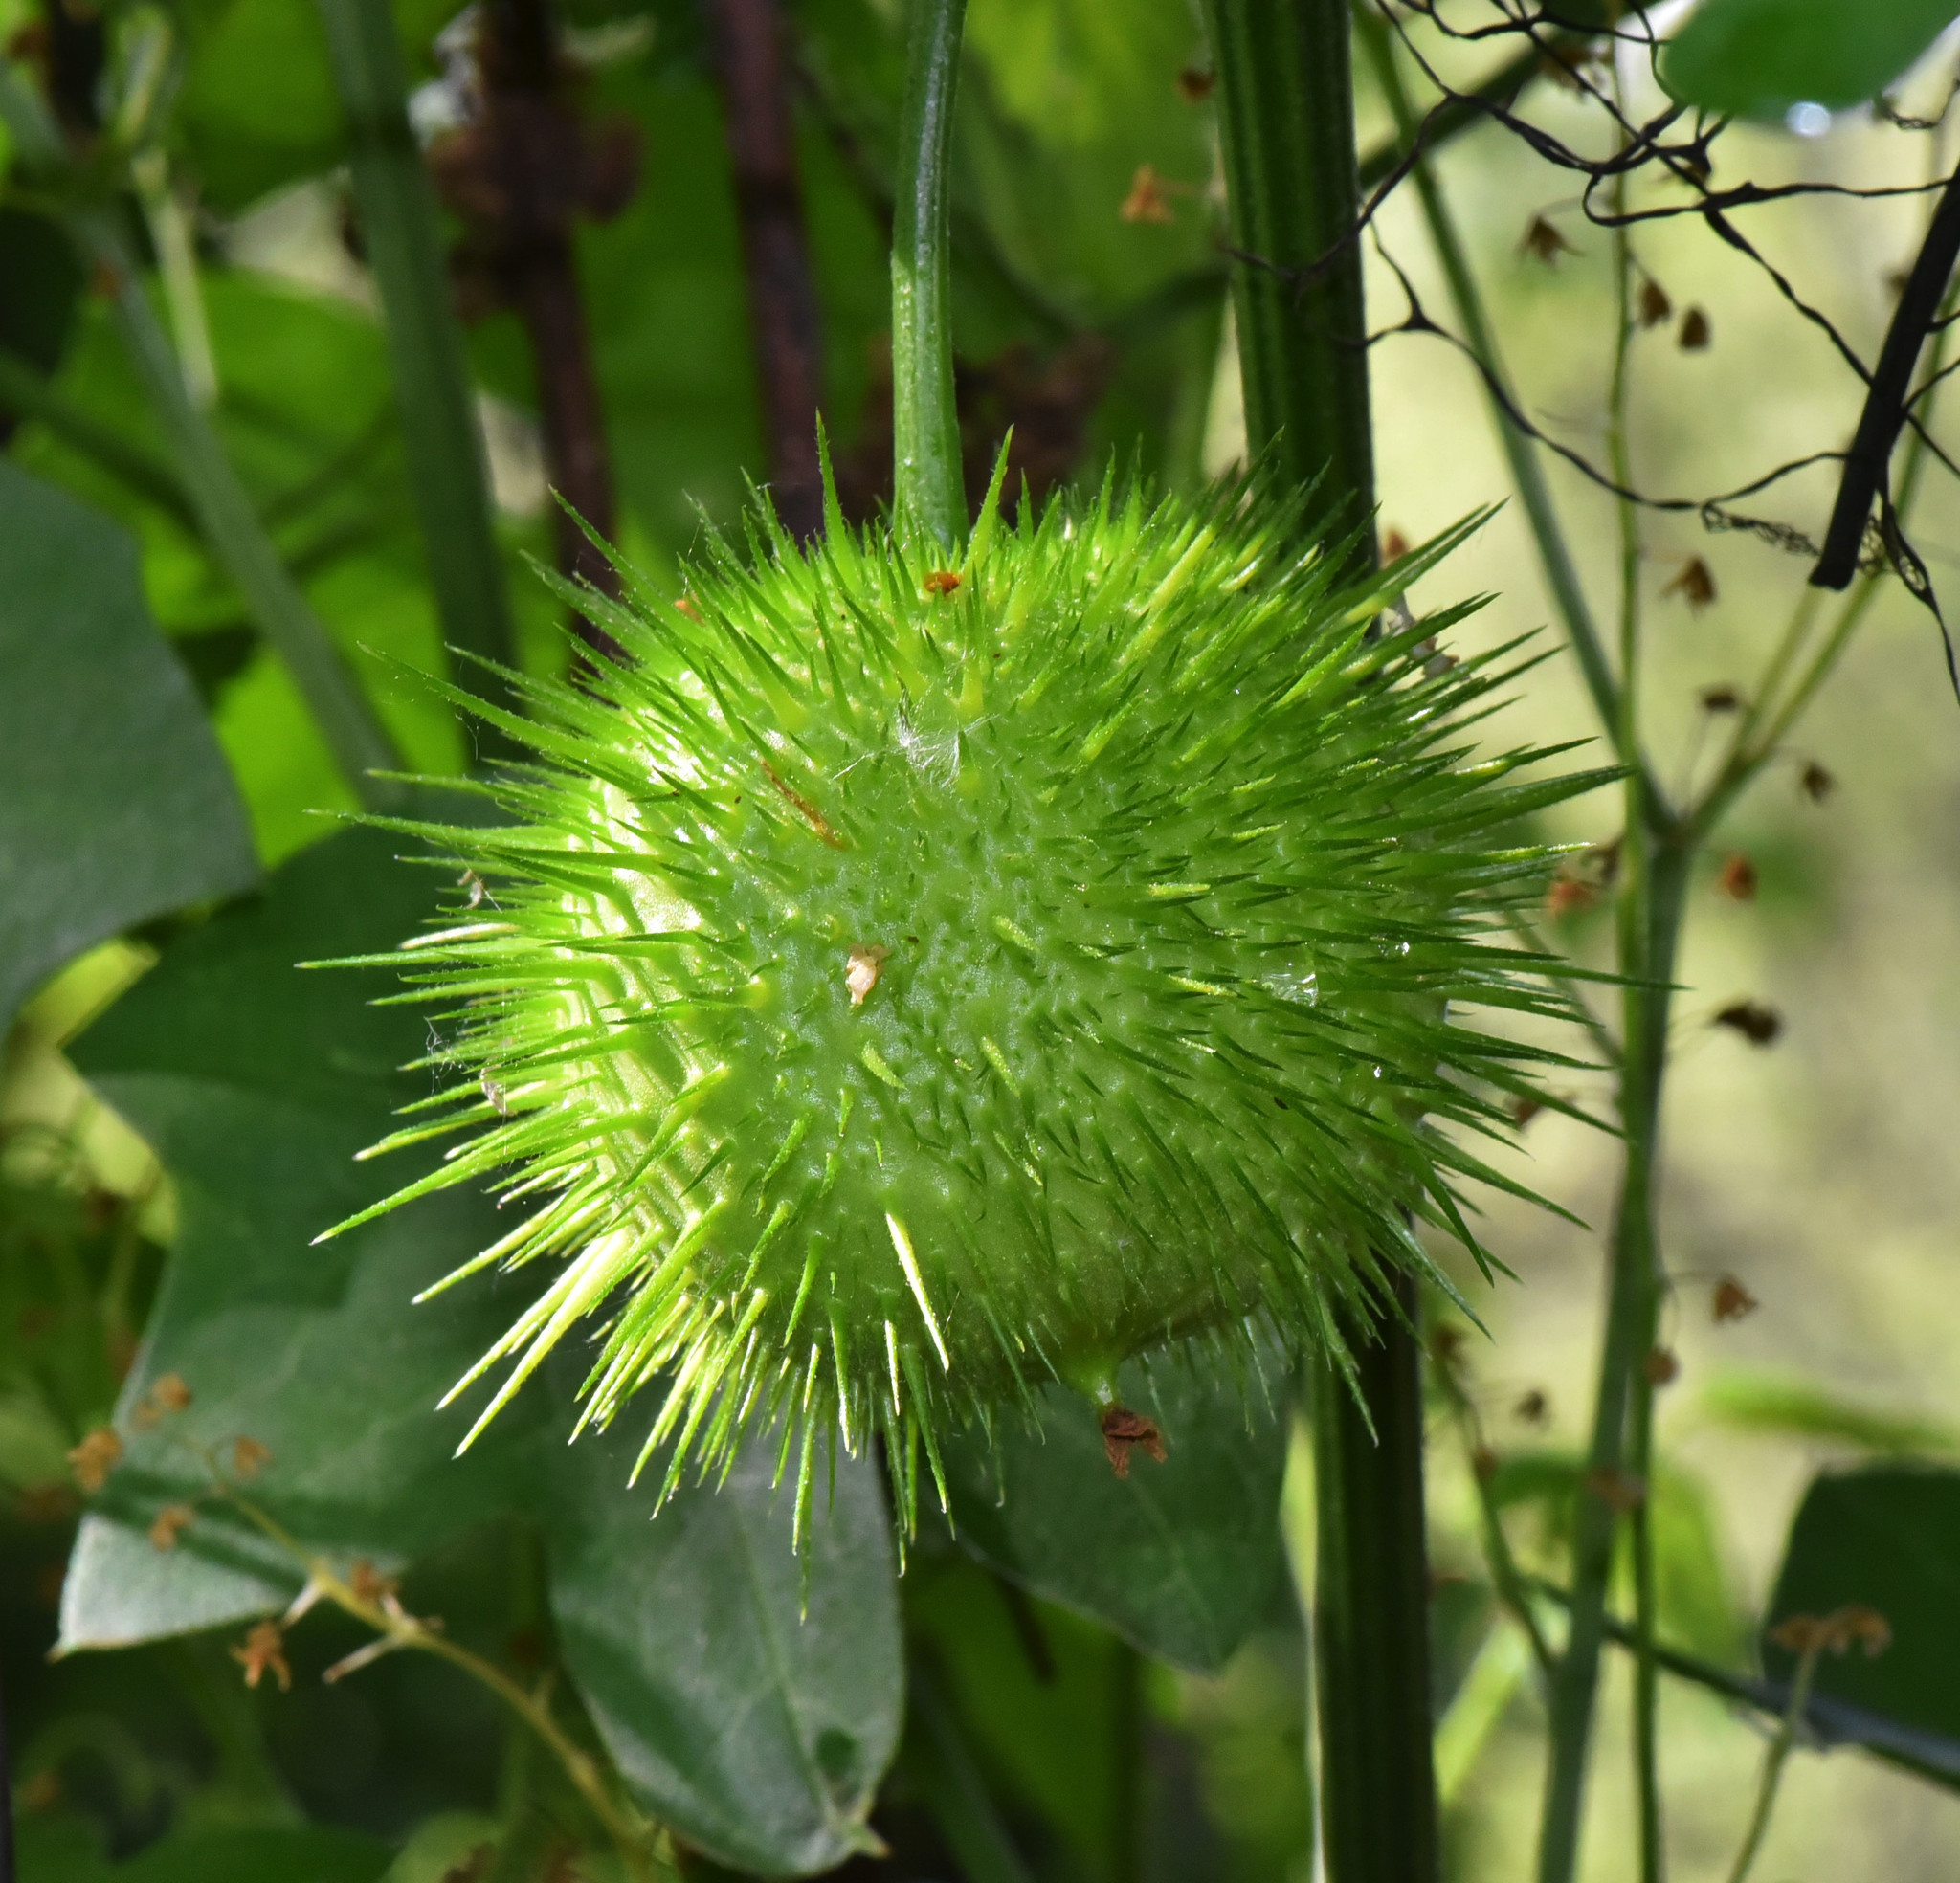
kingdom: Plantae
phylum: Tracheophyta
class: Magnoliopsida
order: Cucurbitales
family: Cucurbitaceae
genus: Marah
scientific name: Marah fabacea
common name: California manroot
